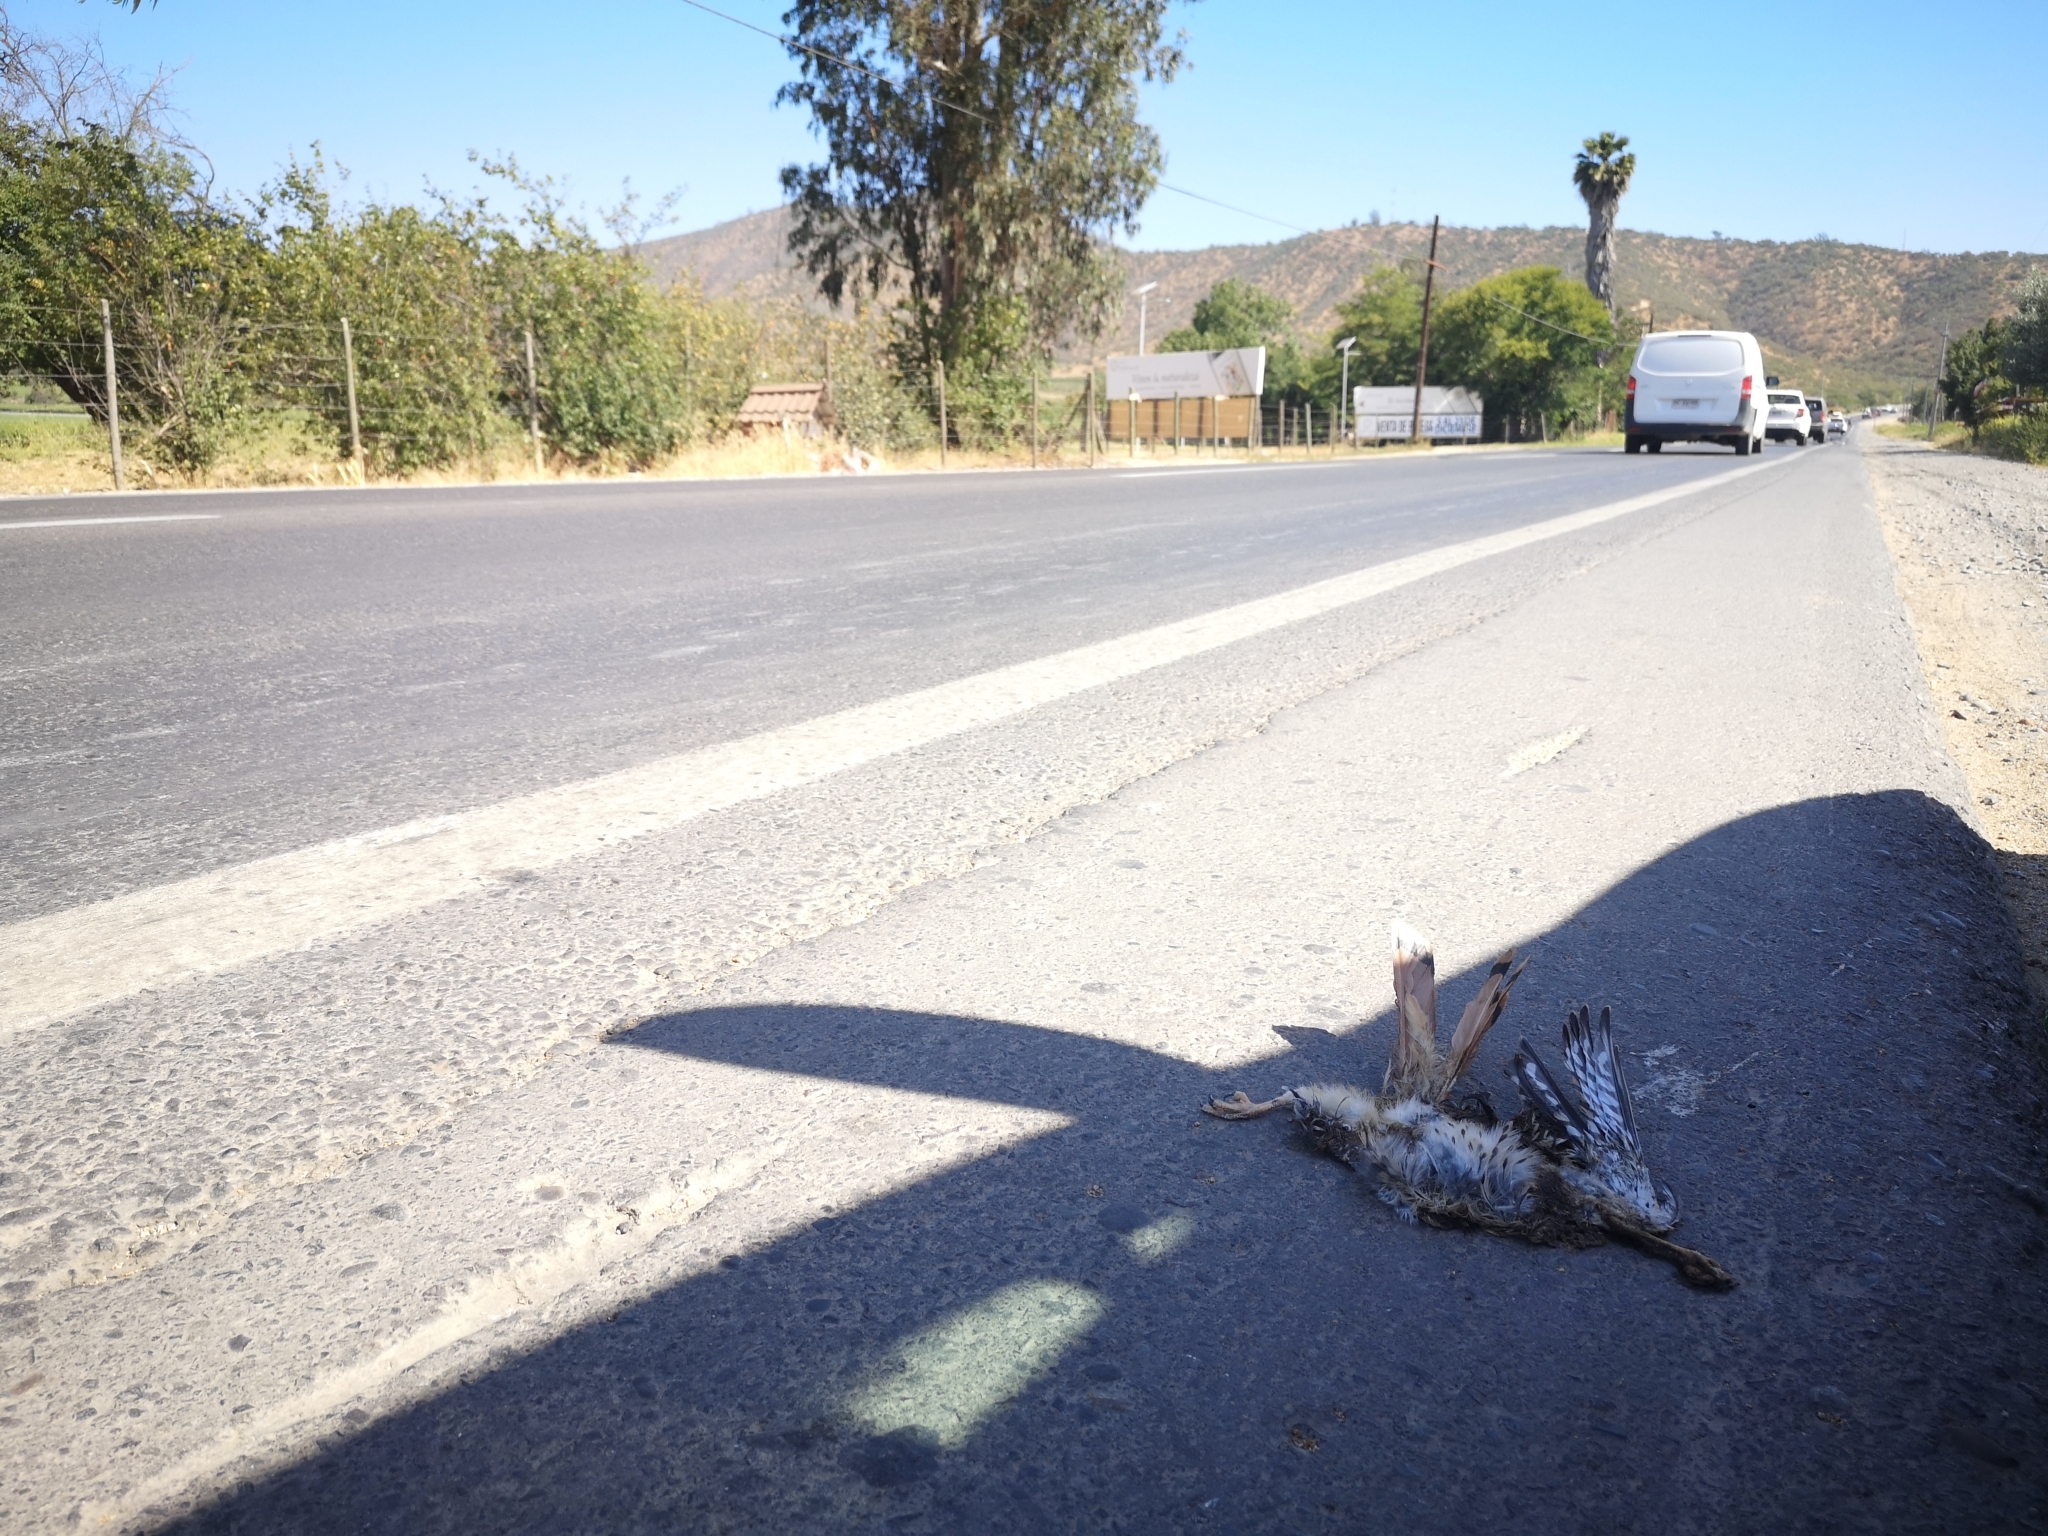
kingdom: Animalia
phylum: Chordata
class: Aves
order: Falconiformes
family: Falconidae
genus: Falco
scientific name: Falco sparverius
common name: American kestrel
